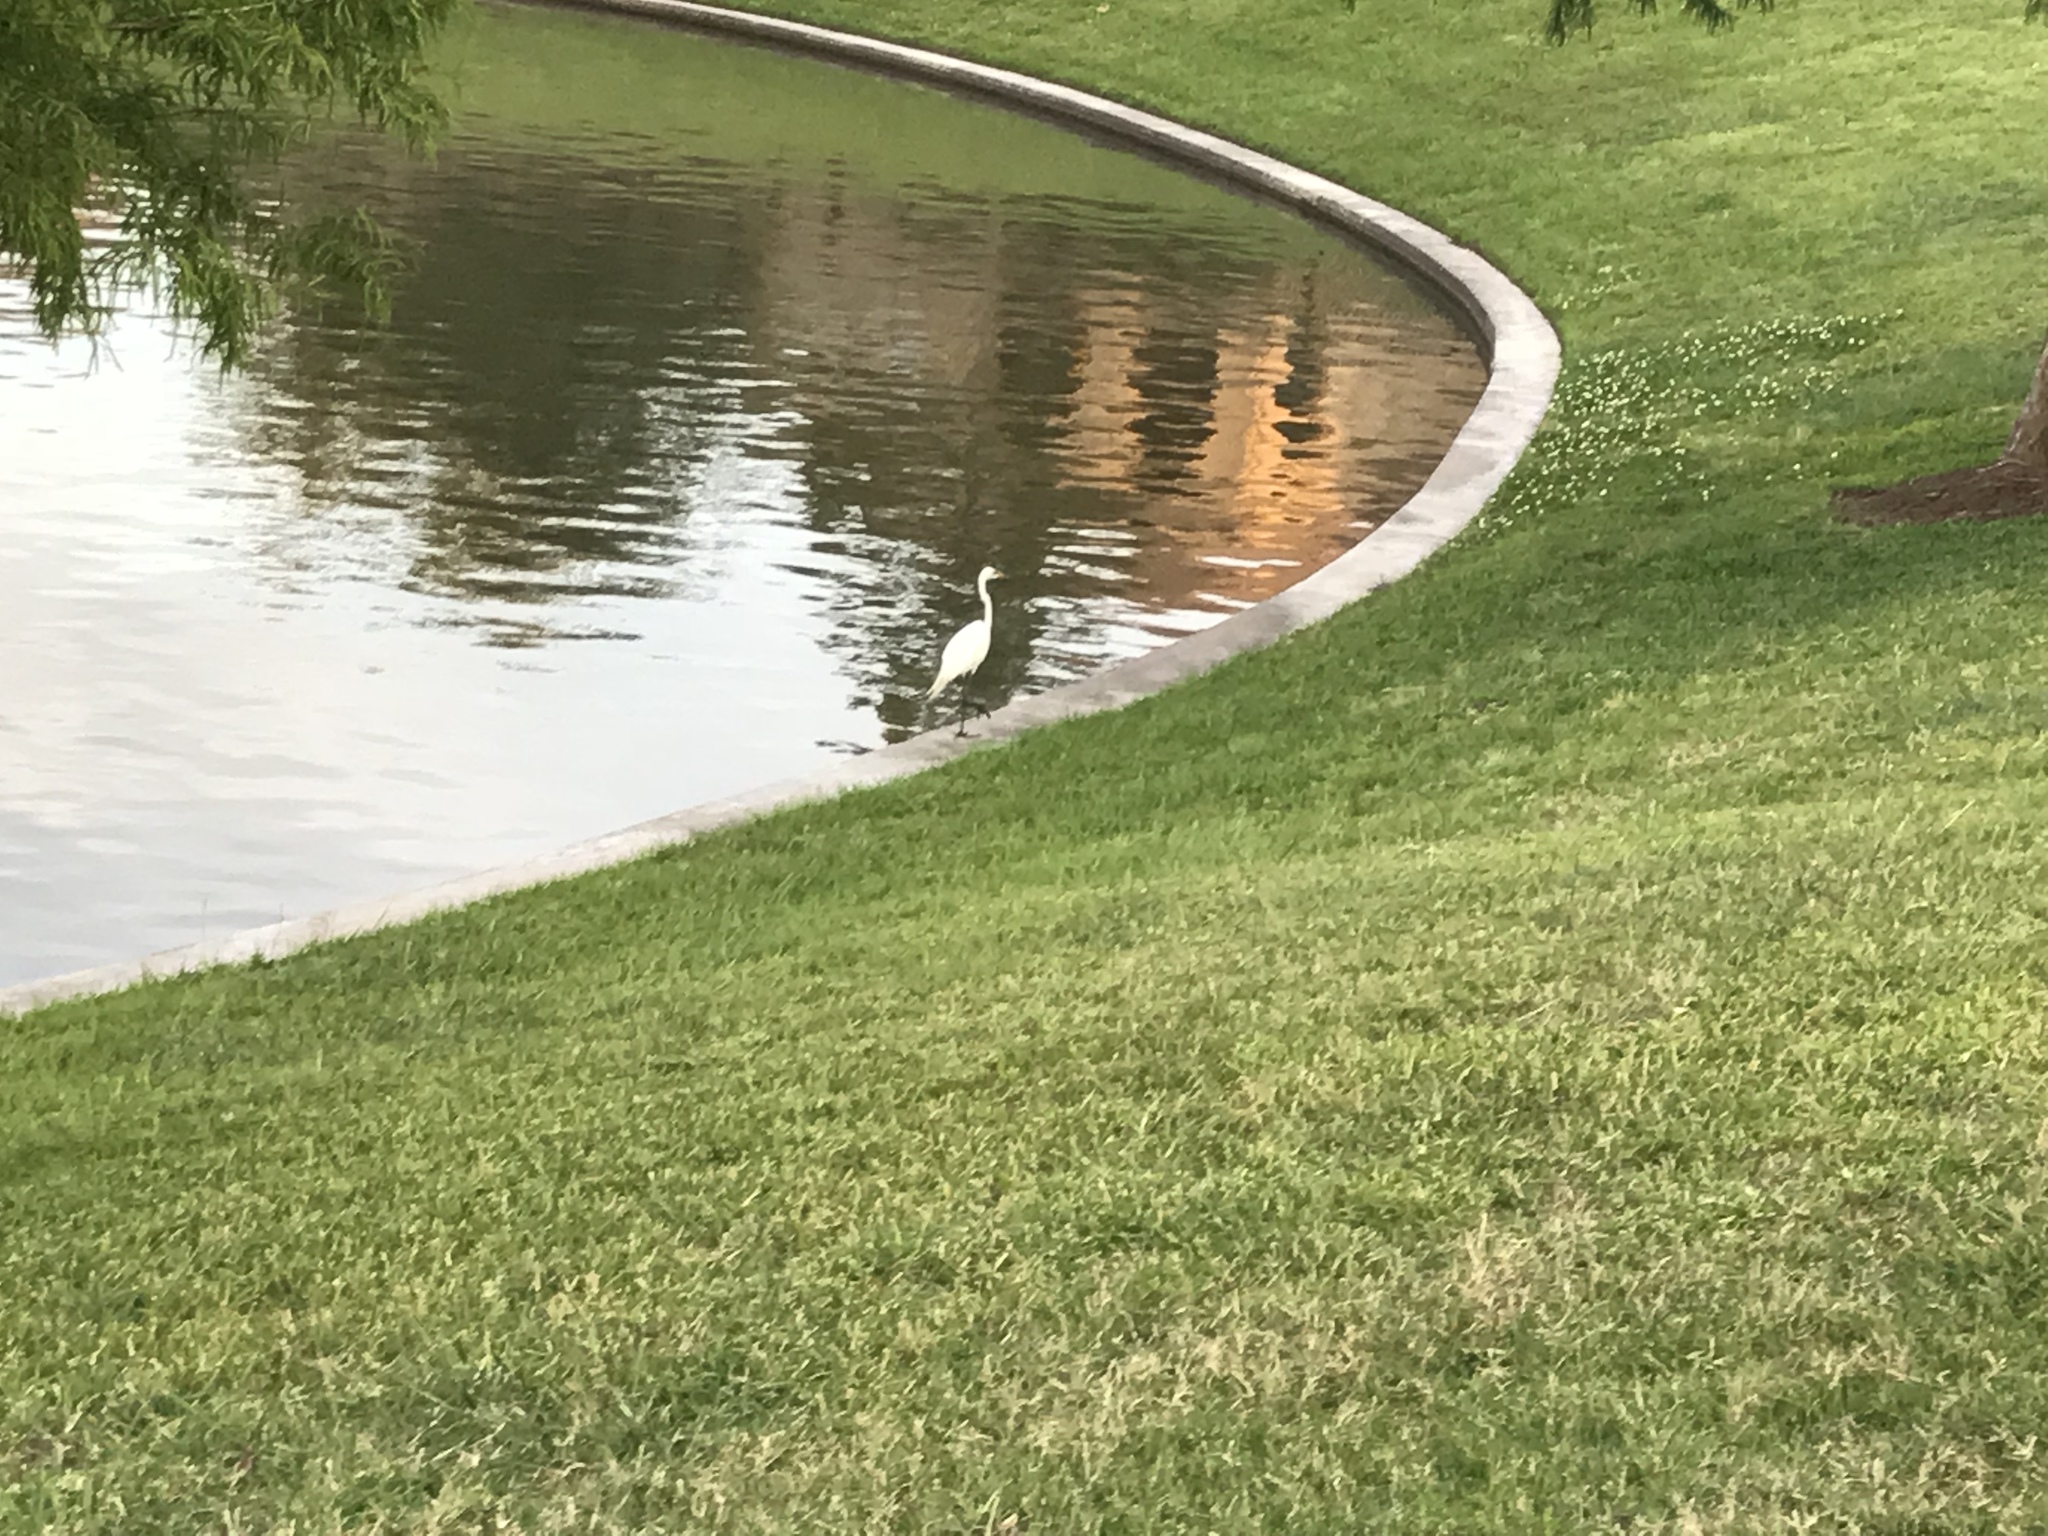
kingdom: Animalia
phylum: Chordata
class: Aves
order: Pelecaniformes
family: Ardeidae
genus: Ardea
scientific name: Ardea alba
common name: Great egret
